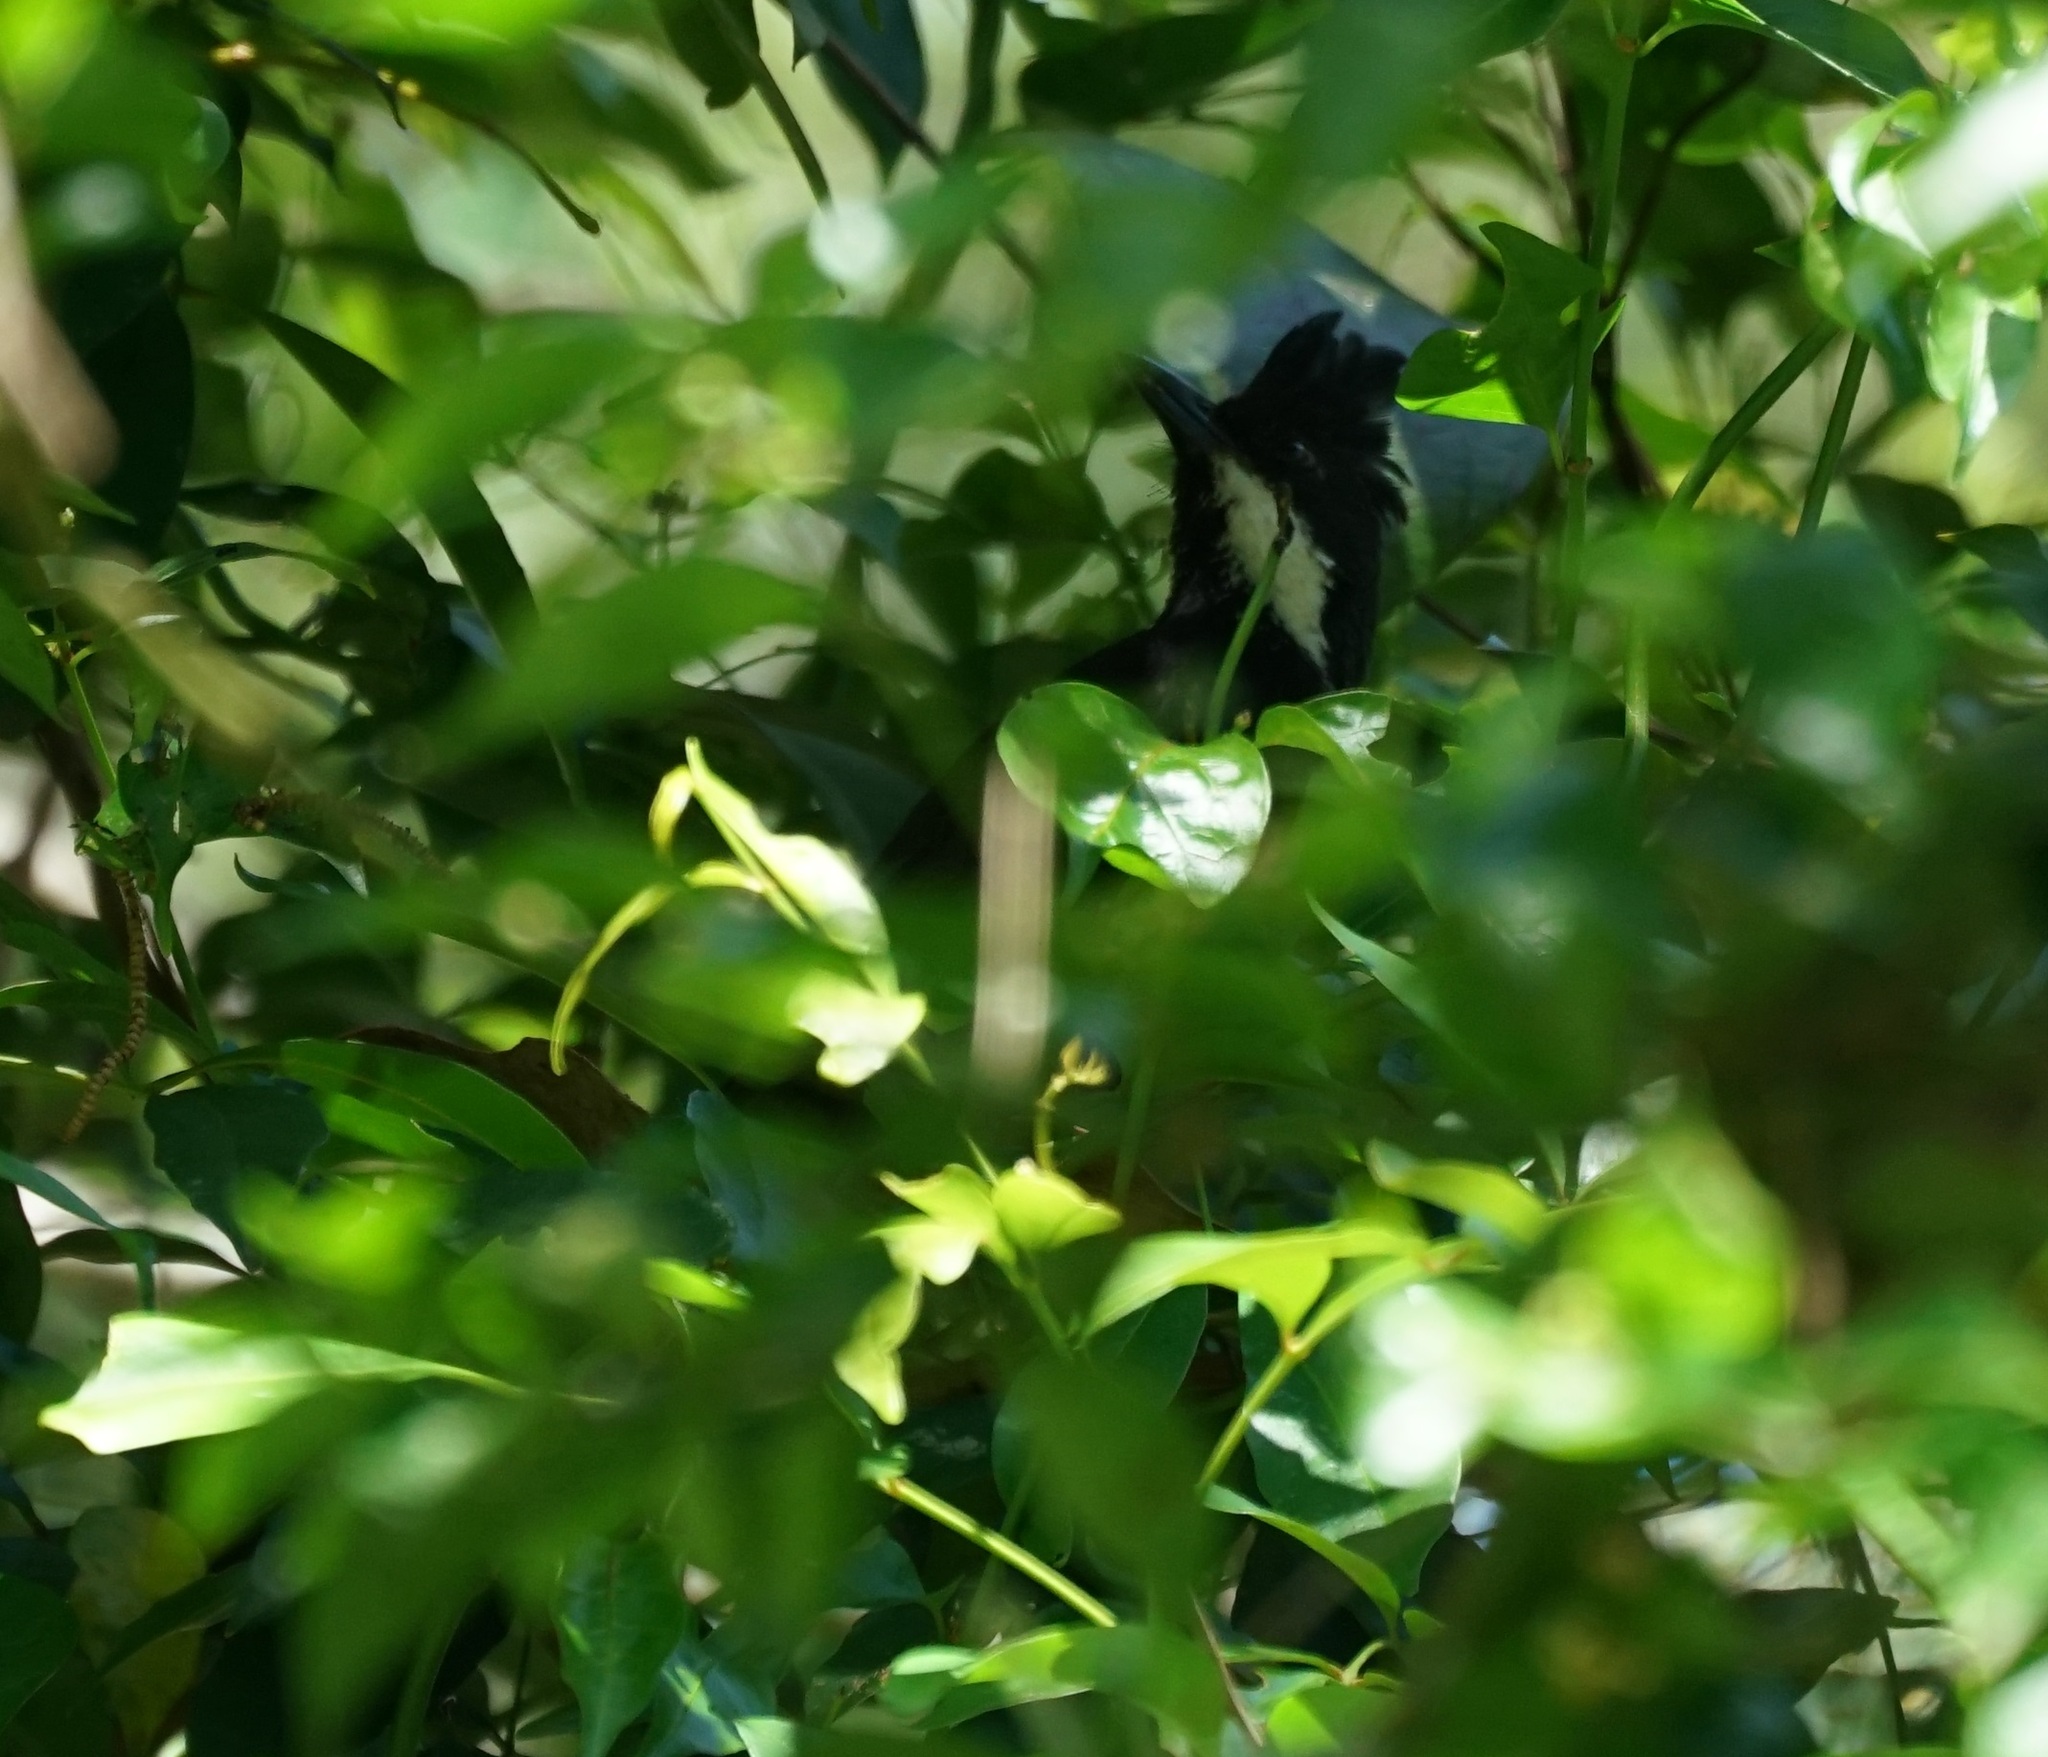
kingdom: Animalia
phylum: Chordata
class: Aves
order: Passeriformes
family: Psophodidae
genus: Psophodes
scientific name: Psophodes olivaceus
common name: Eastern whipbird
